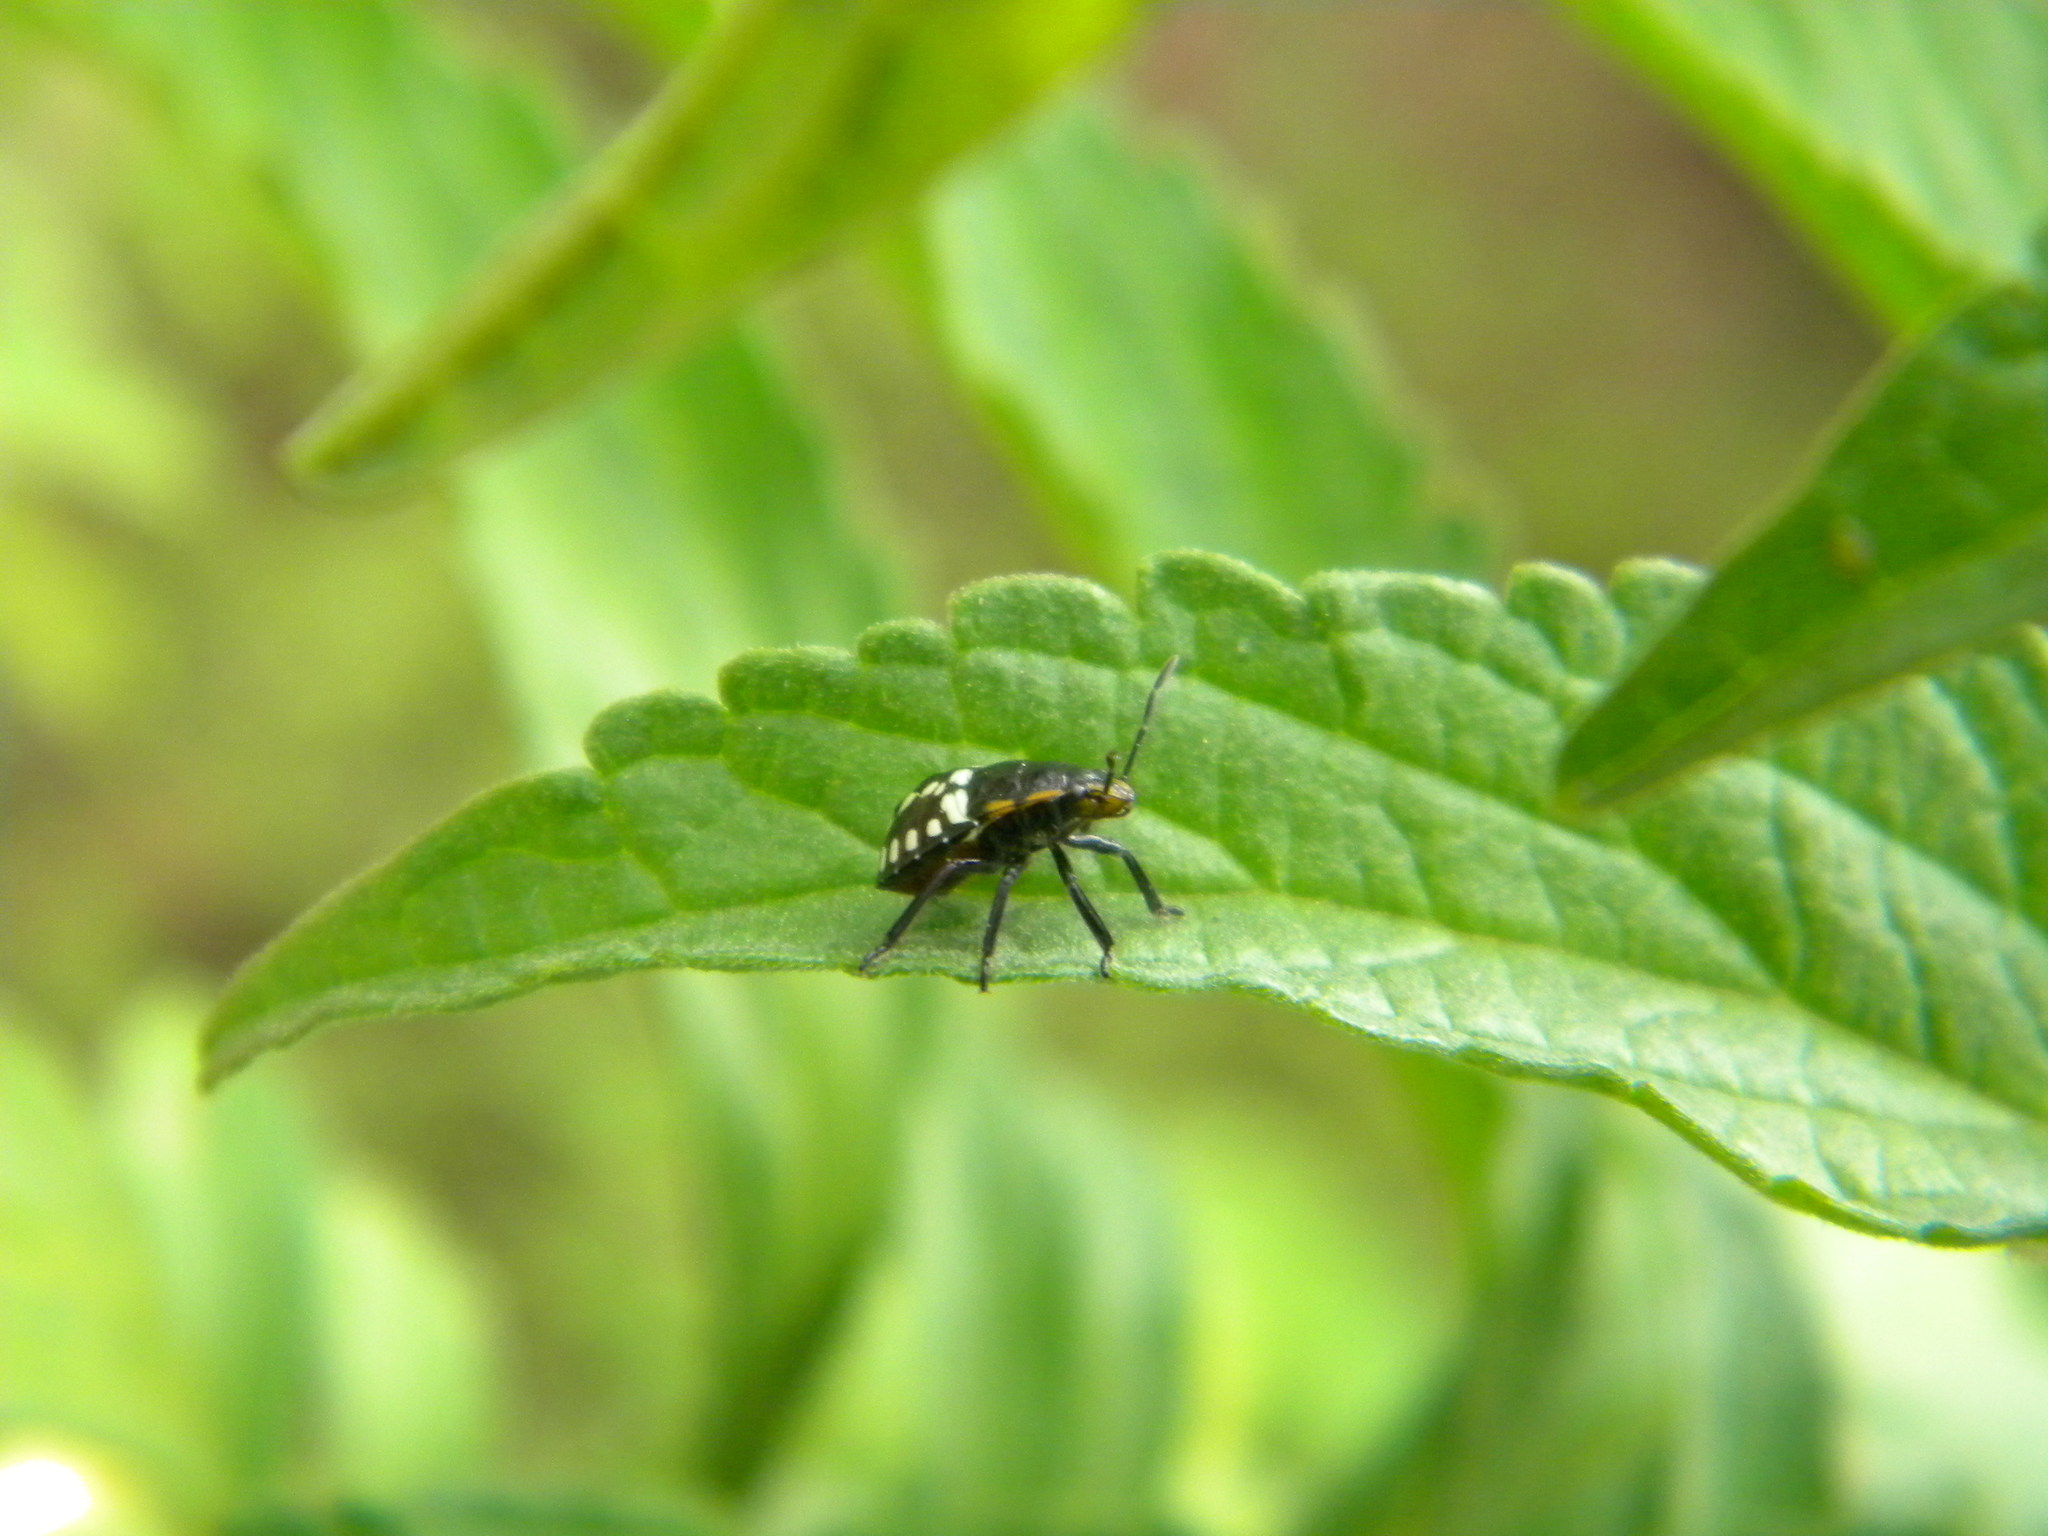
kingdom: Animalia
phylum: Arthropoda
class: Insecta
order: Hemiptera
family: Pentatomidae
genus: Nezara
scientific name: Nezara viridula
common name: Southern green stink bug
